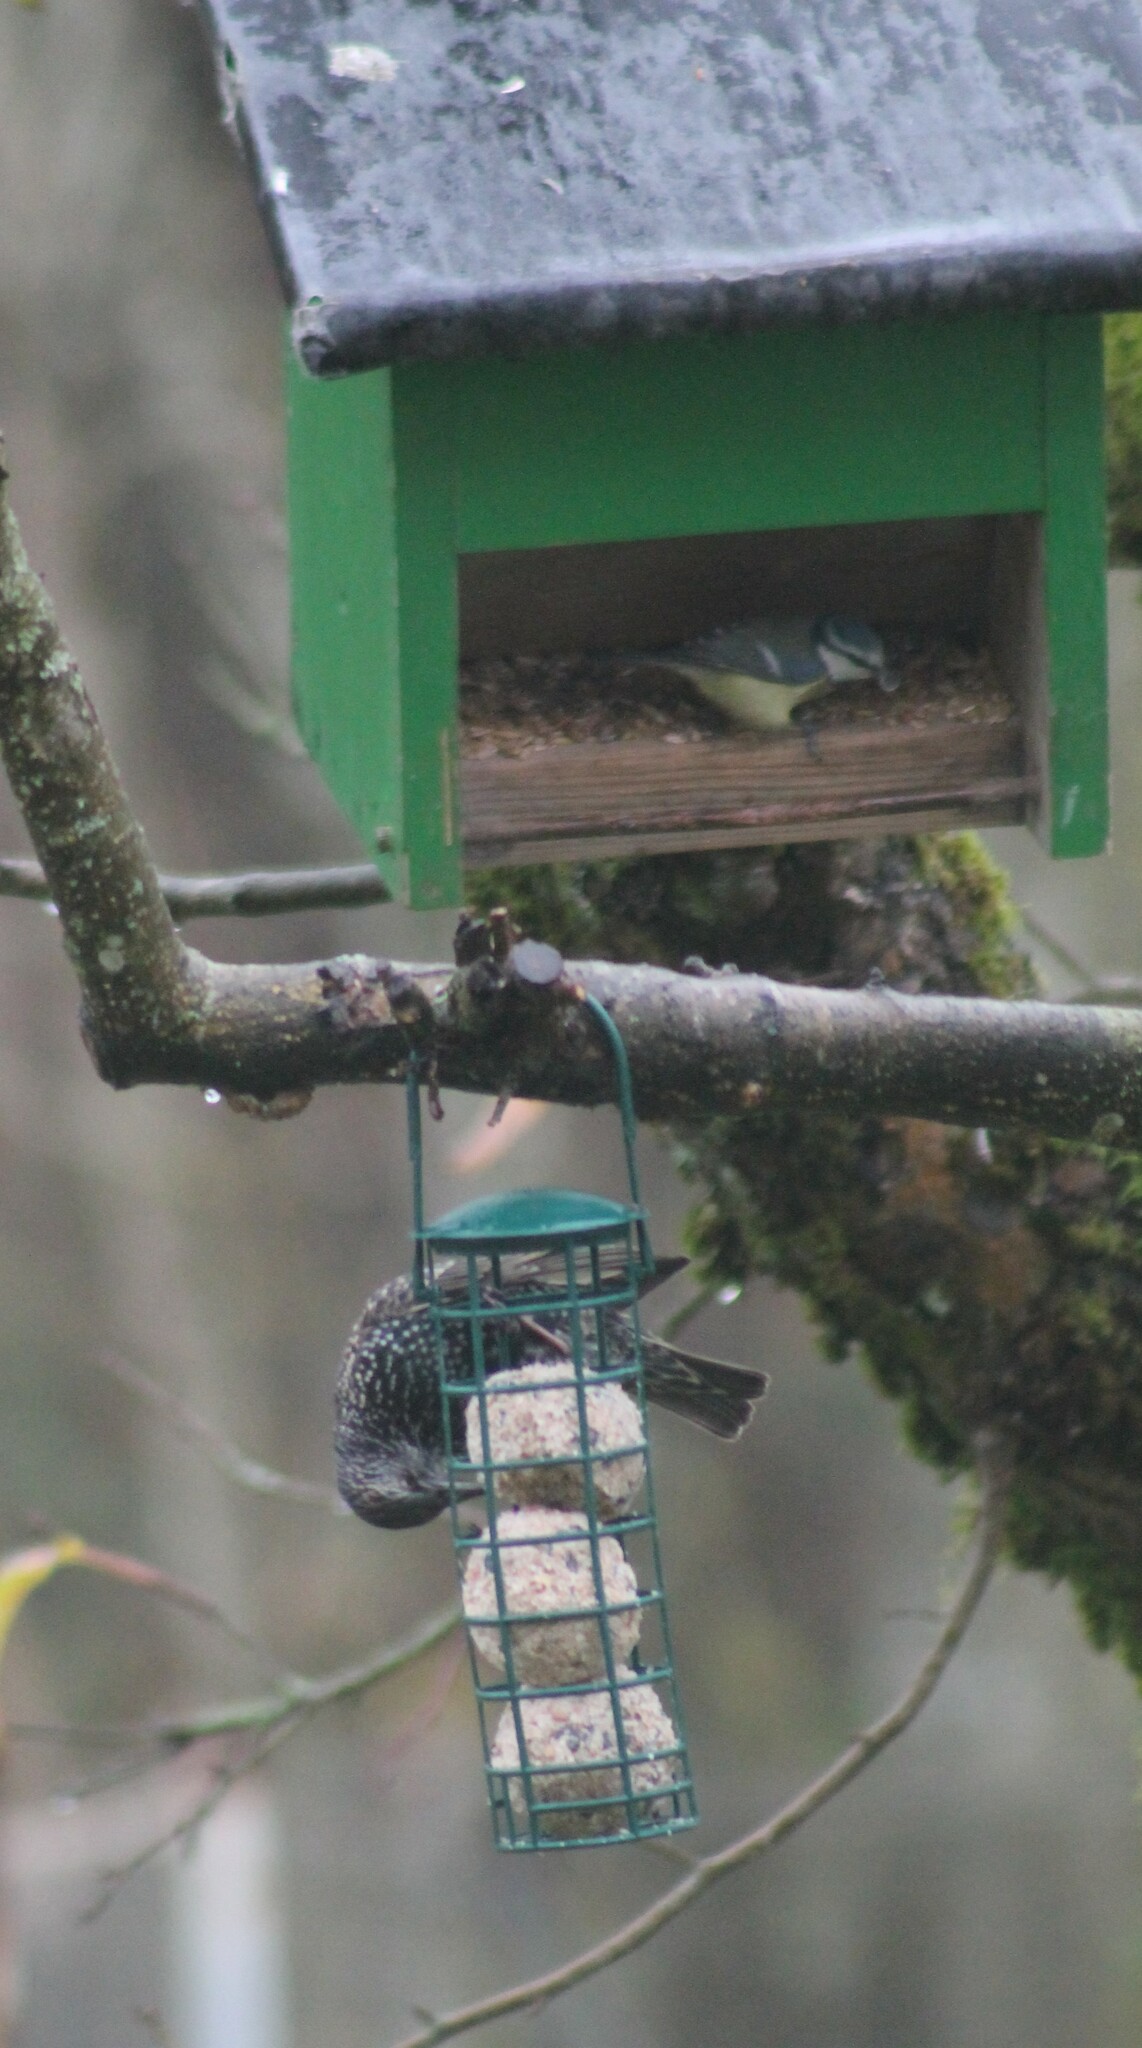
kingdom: Animalia
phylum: Chordata
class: Aves
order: Passeriformes
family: Paridae
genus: Cyanistes
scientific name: Cyanistes caeruleus
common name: Eurasian blue tit
